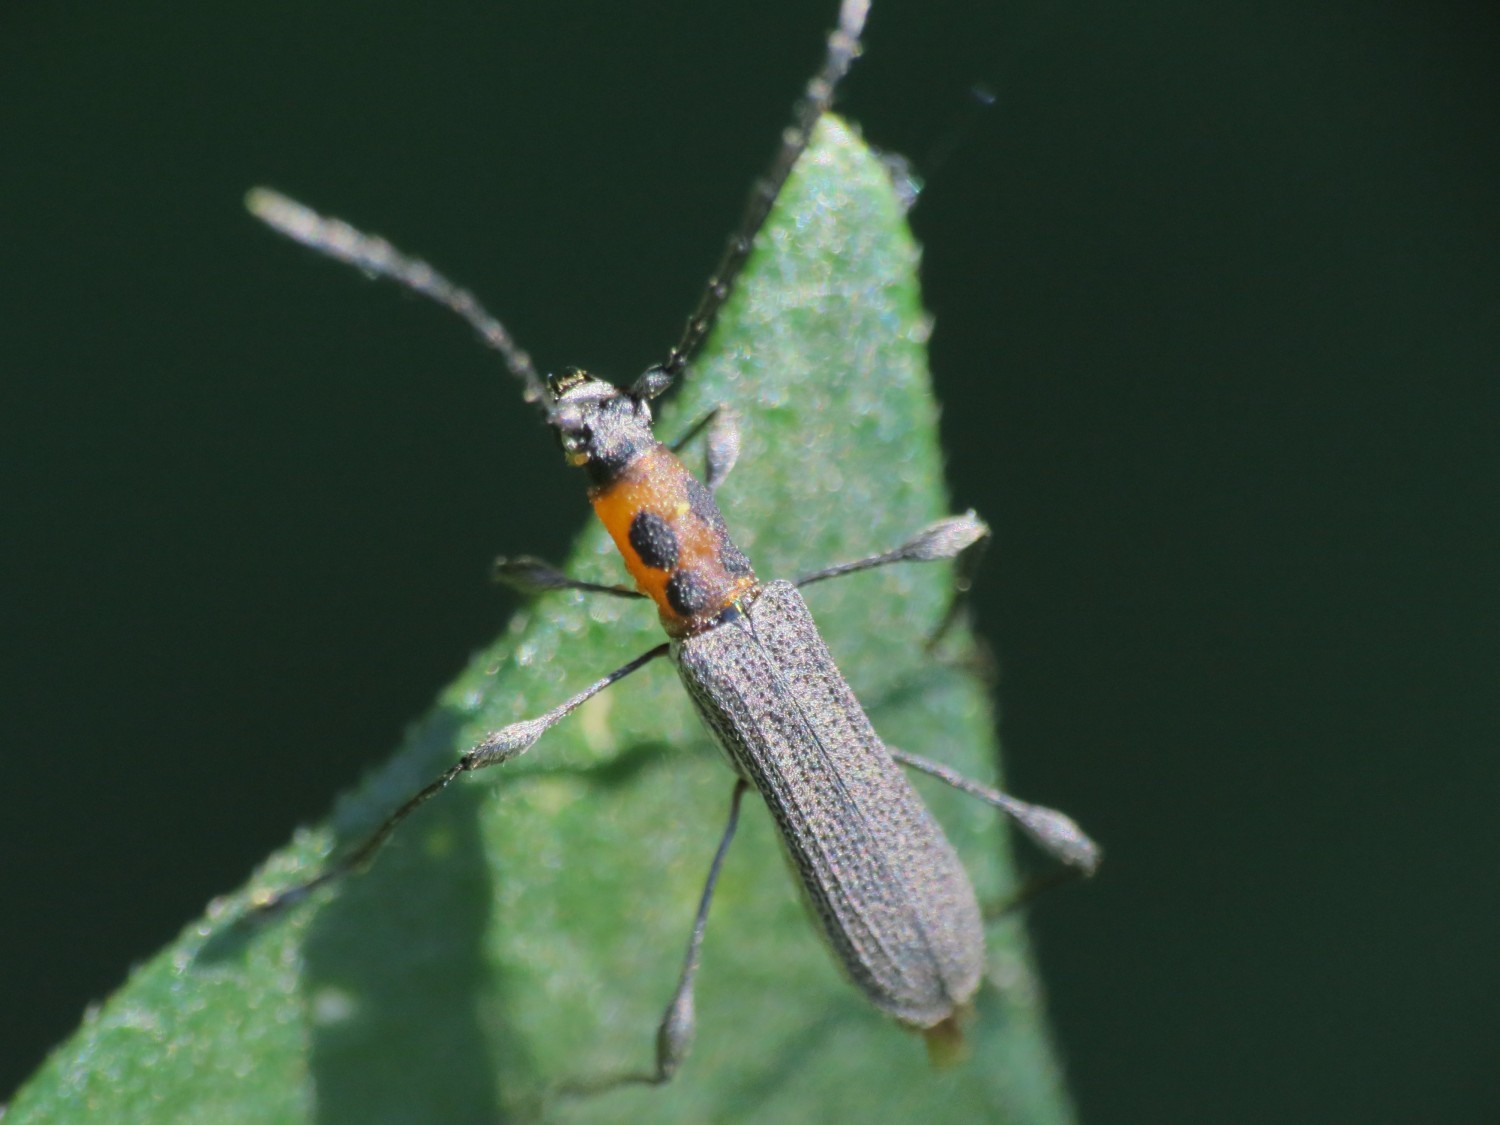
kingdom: Animalia
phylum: Arthropoda
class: Insecta
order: Coleoptera
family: Cerambycidae
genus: Dihammaphora
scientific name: Dihammaphora signaticollis
